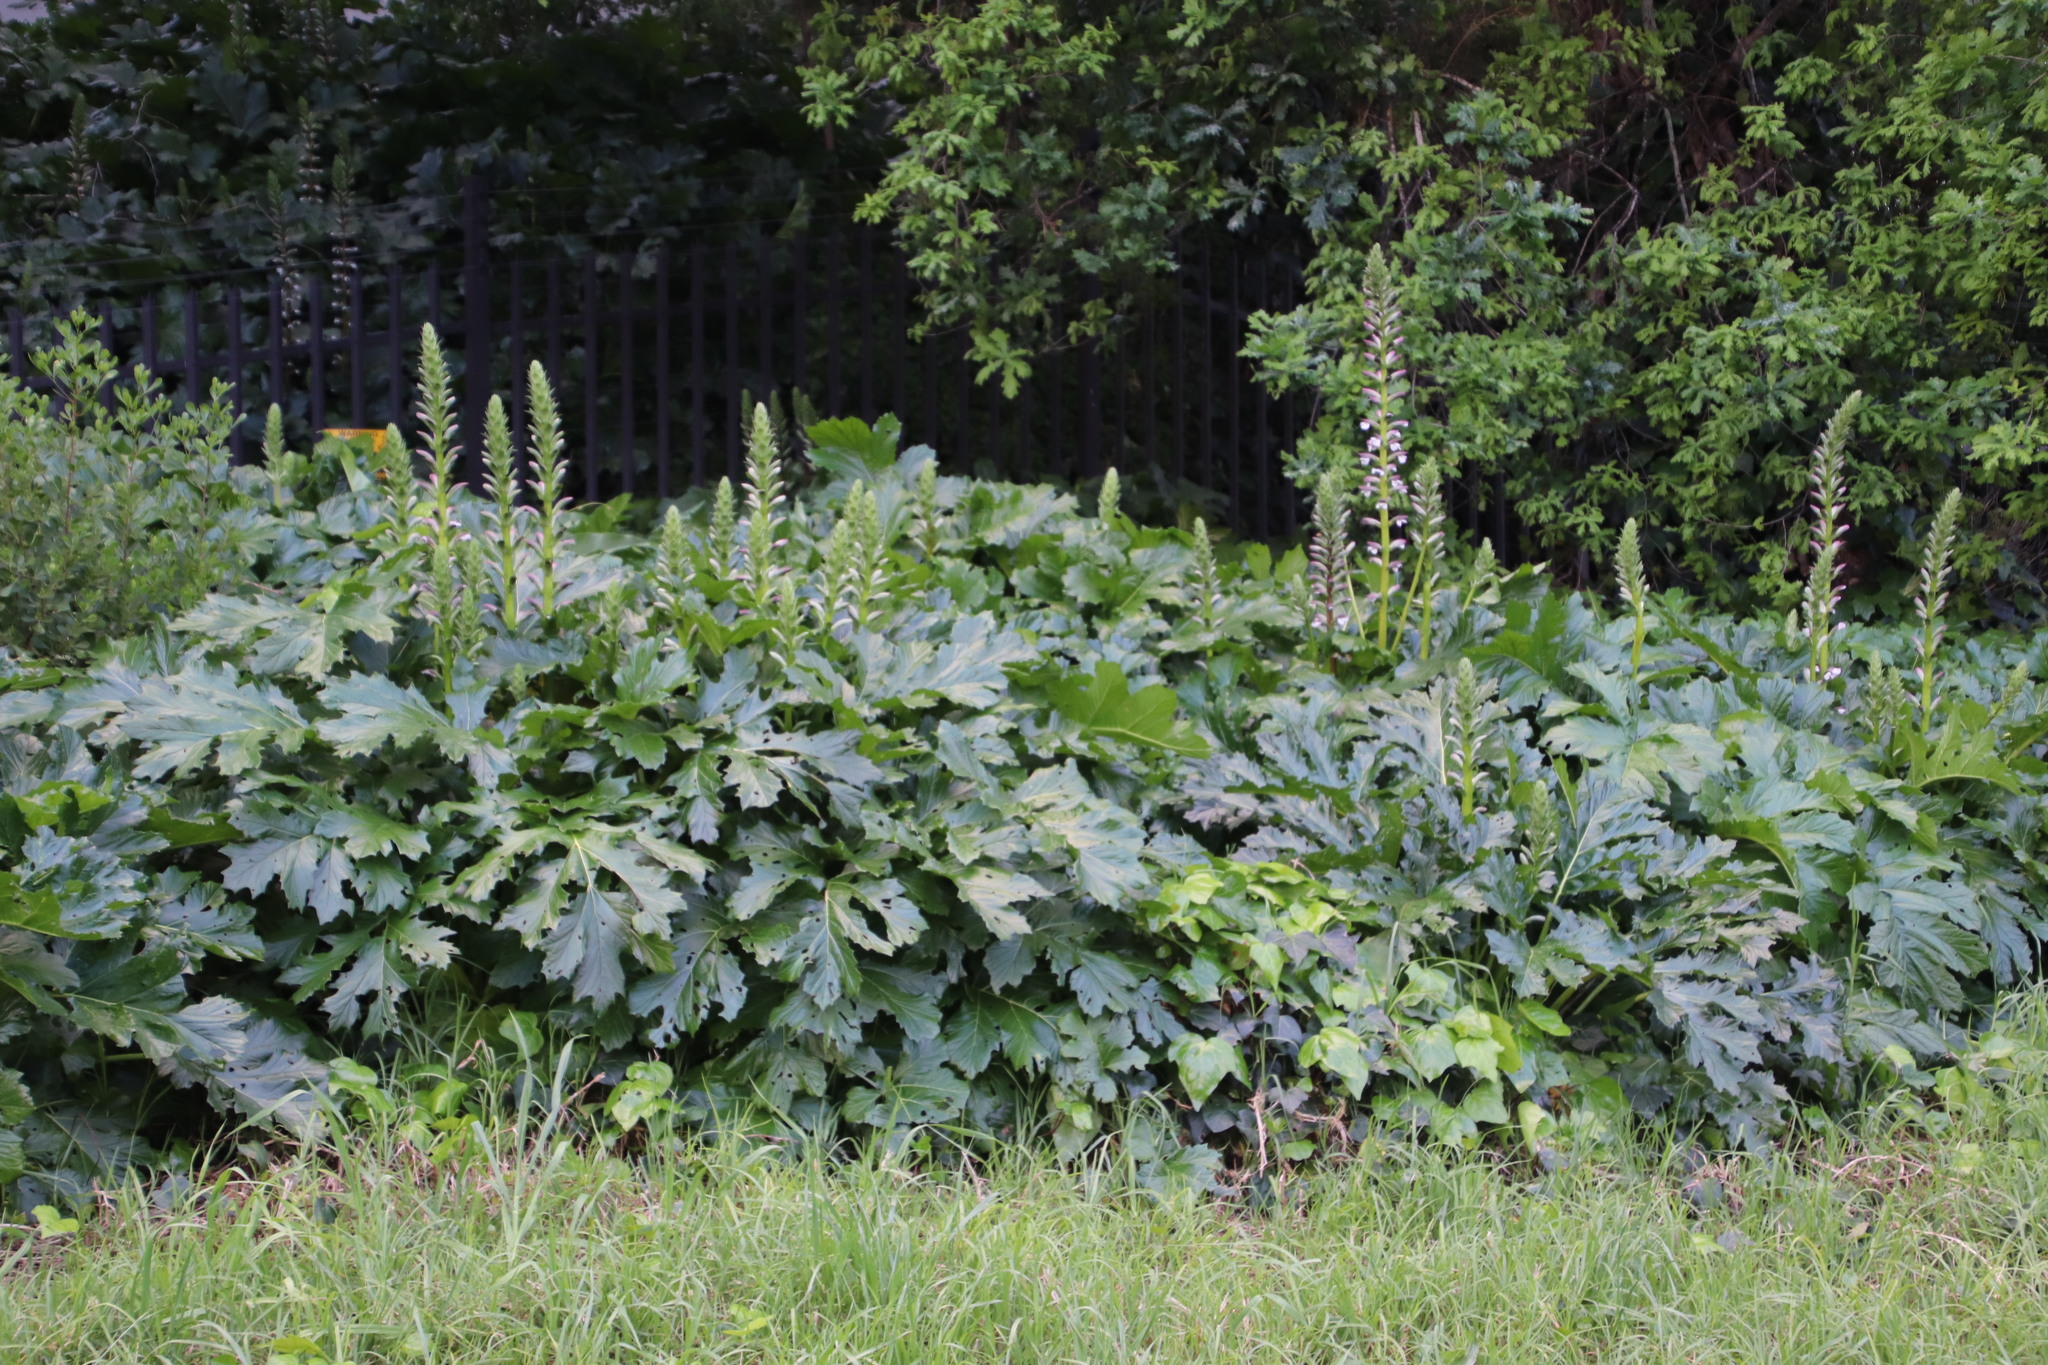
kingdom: Plantae
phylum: Tracheophyta
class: Magnoliopsida
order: Lamiales
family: Acanthaceae
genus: Acanthus
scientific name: Acanthus mollis
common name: Bear's-breech
